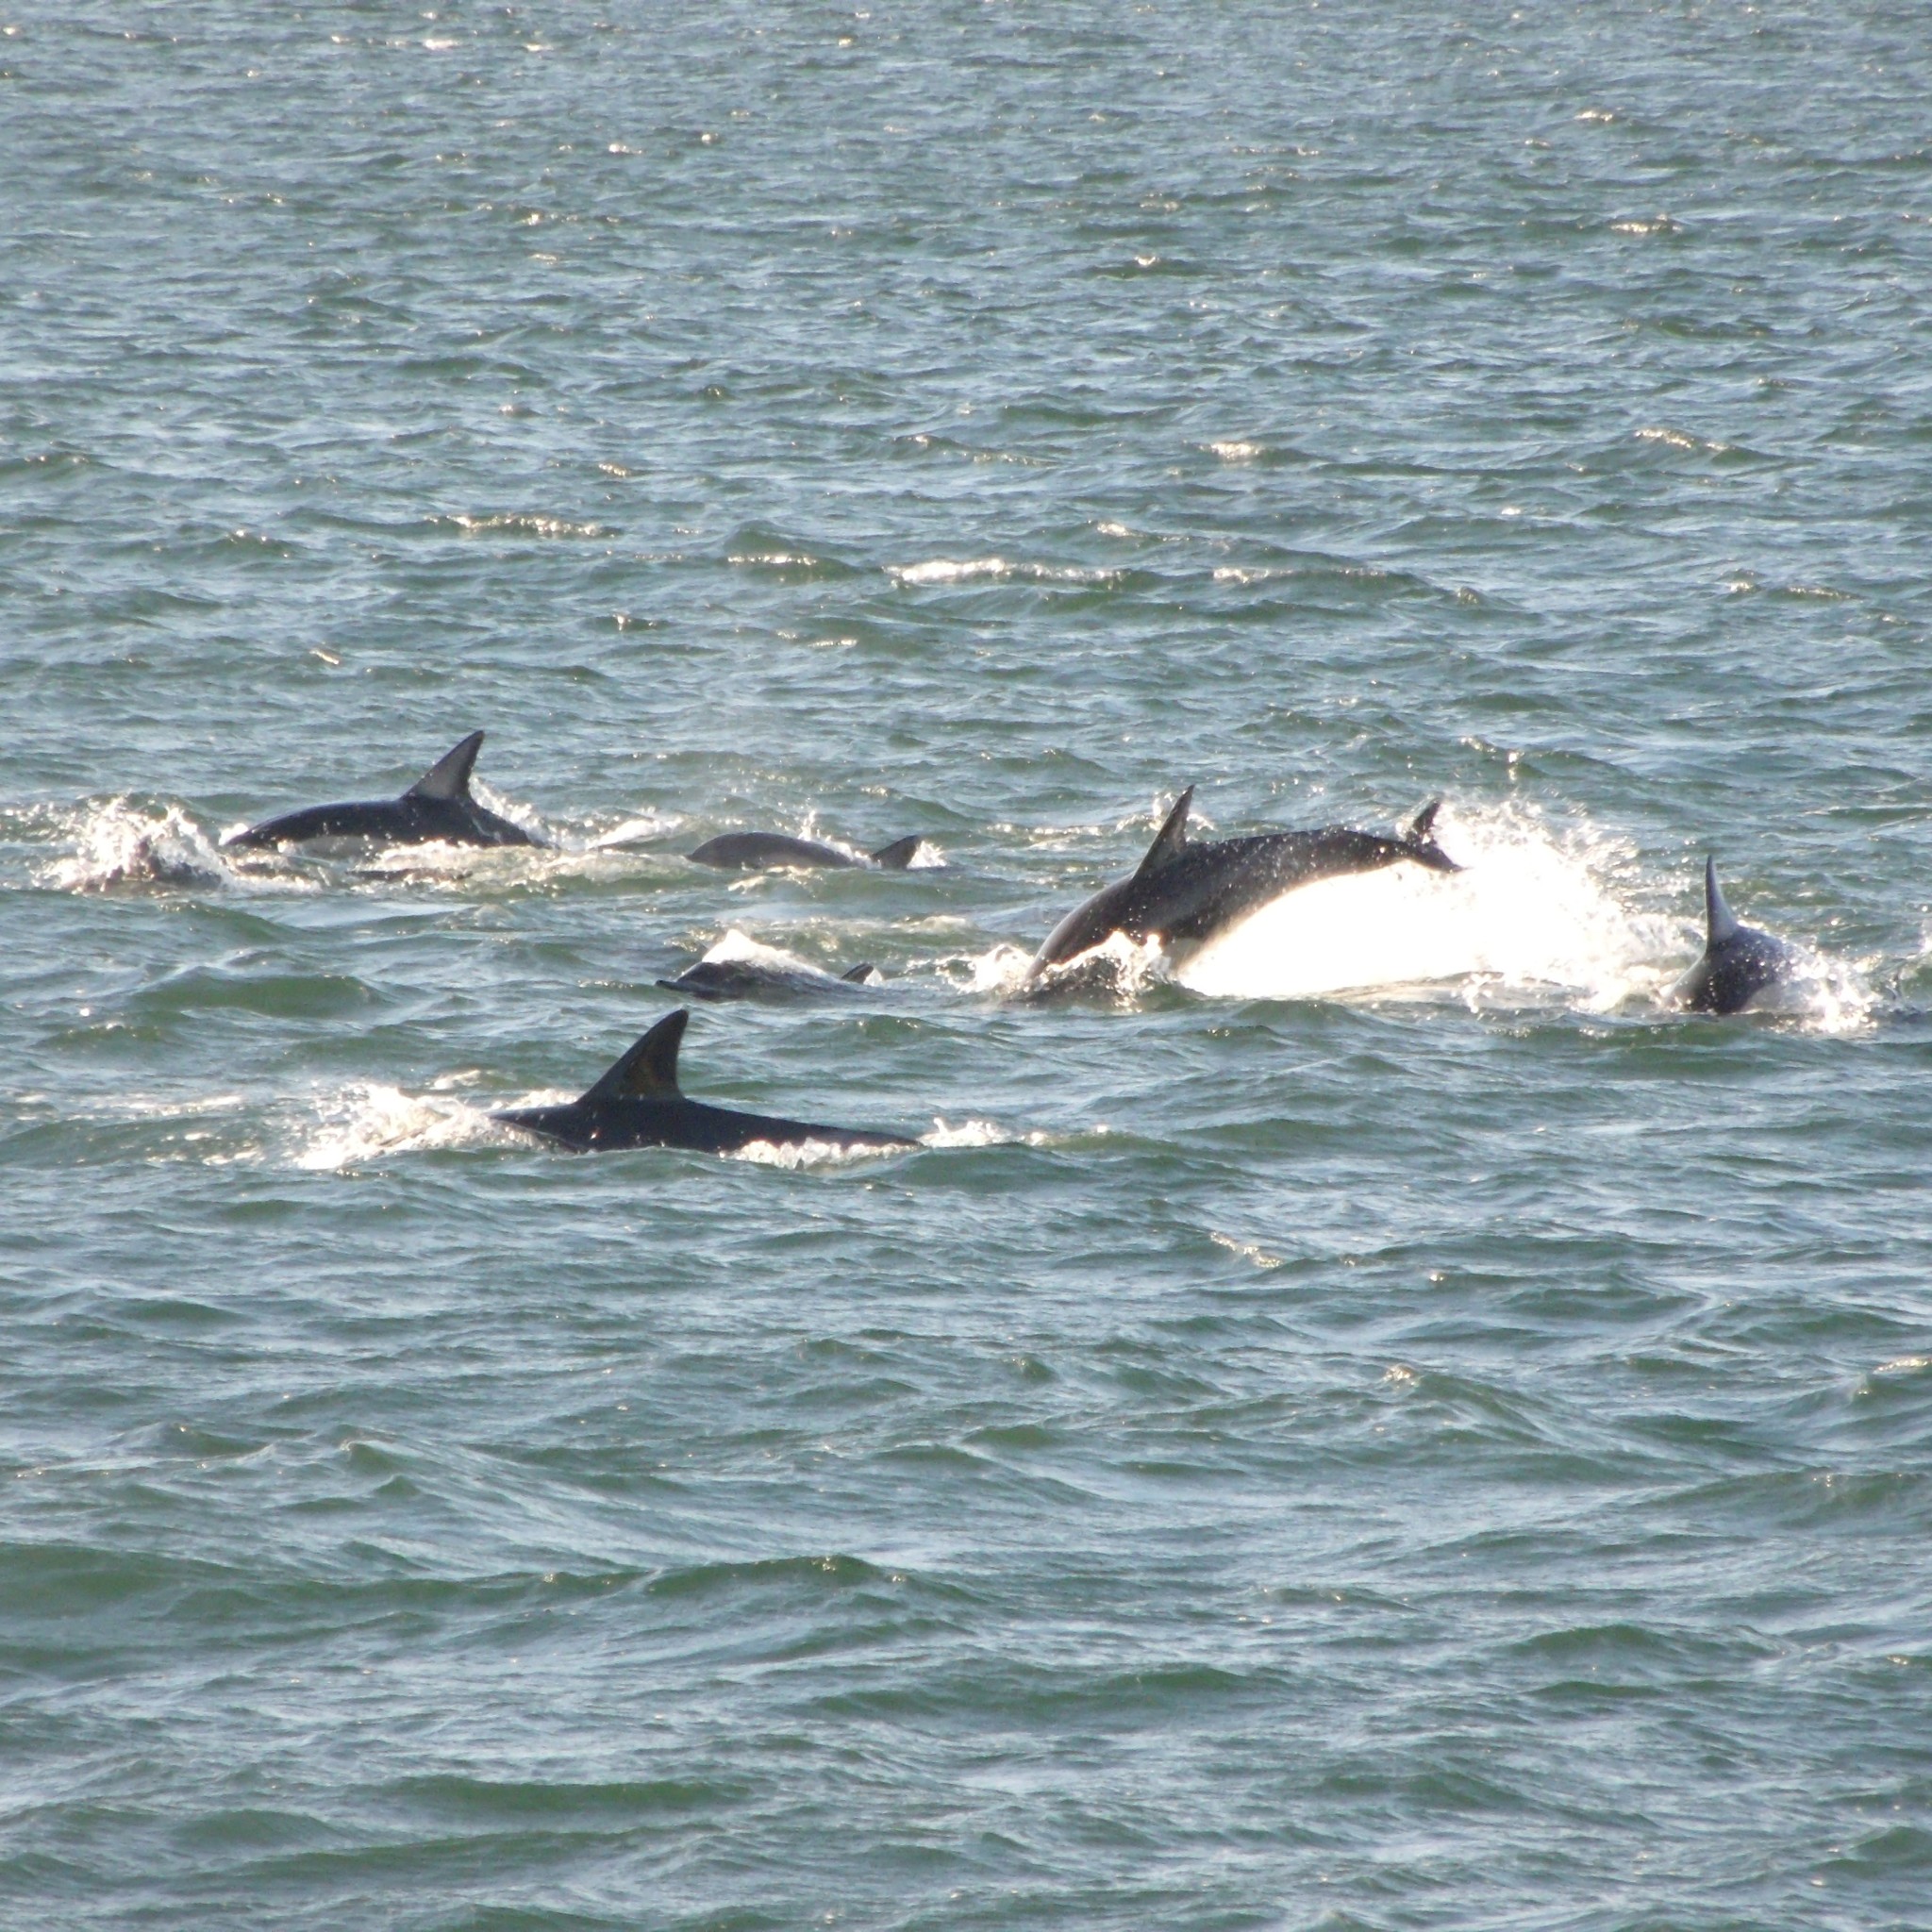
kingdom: Animalia
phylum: Chordata
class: Mammalia
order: Cetacea
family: Delphinidae
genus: Delphinus
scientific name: Delphinus delphis
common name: Common dolphin
